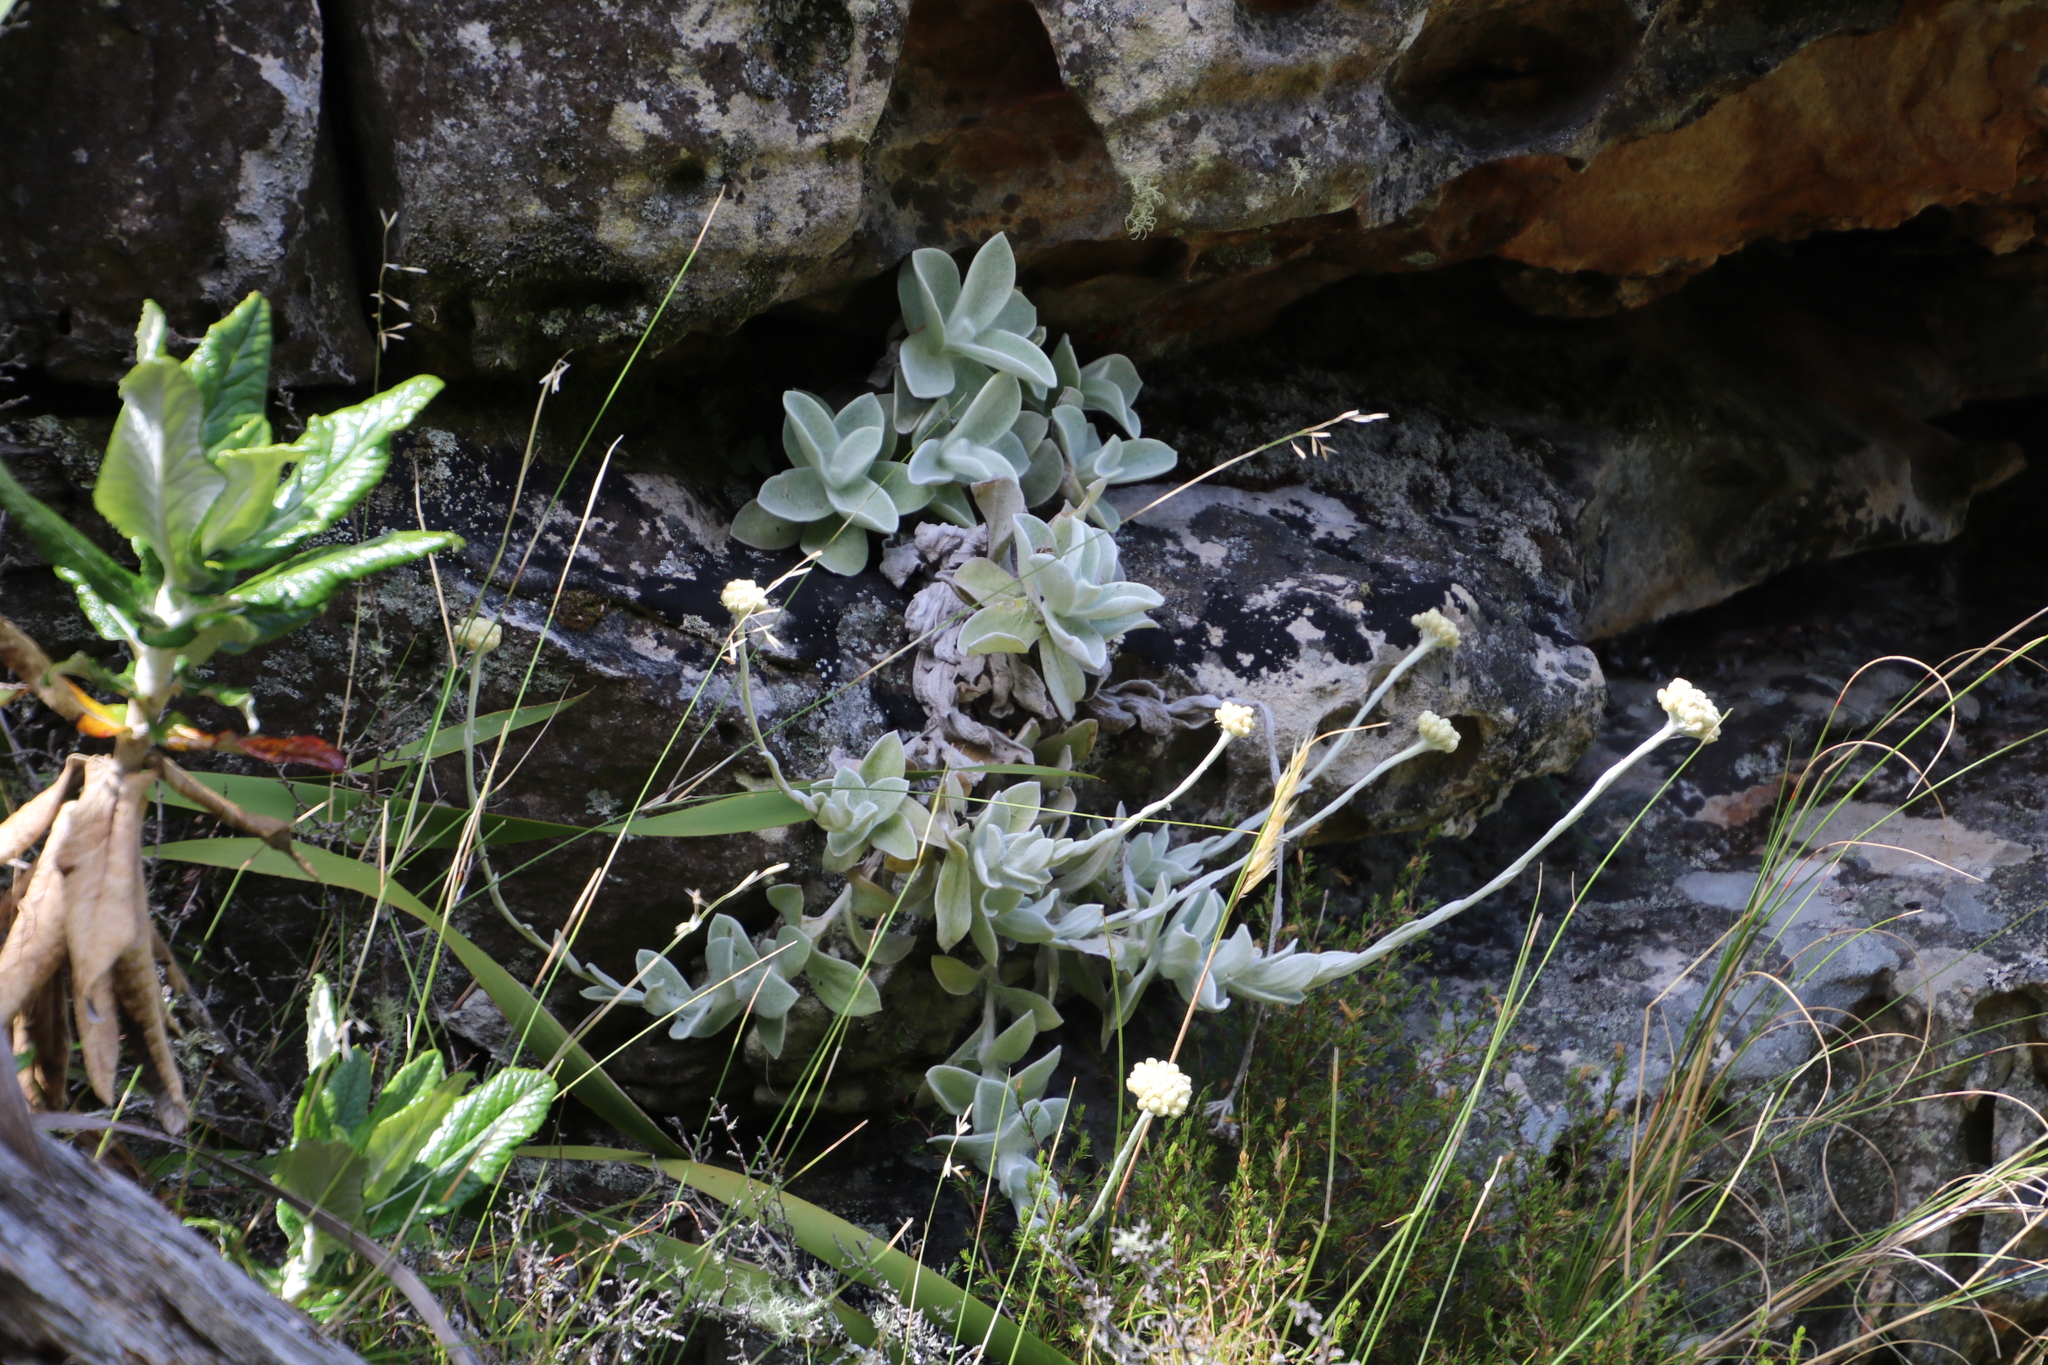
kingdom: Plantae
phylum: Tracheophyta
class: Magnoliopsida
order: Asterales
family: Asteraceae
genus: Helichrysum
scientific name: Helichrysum grandiflorum
